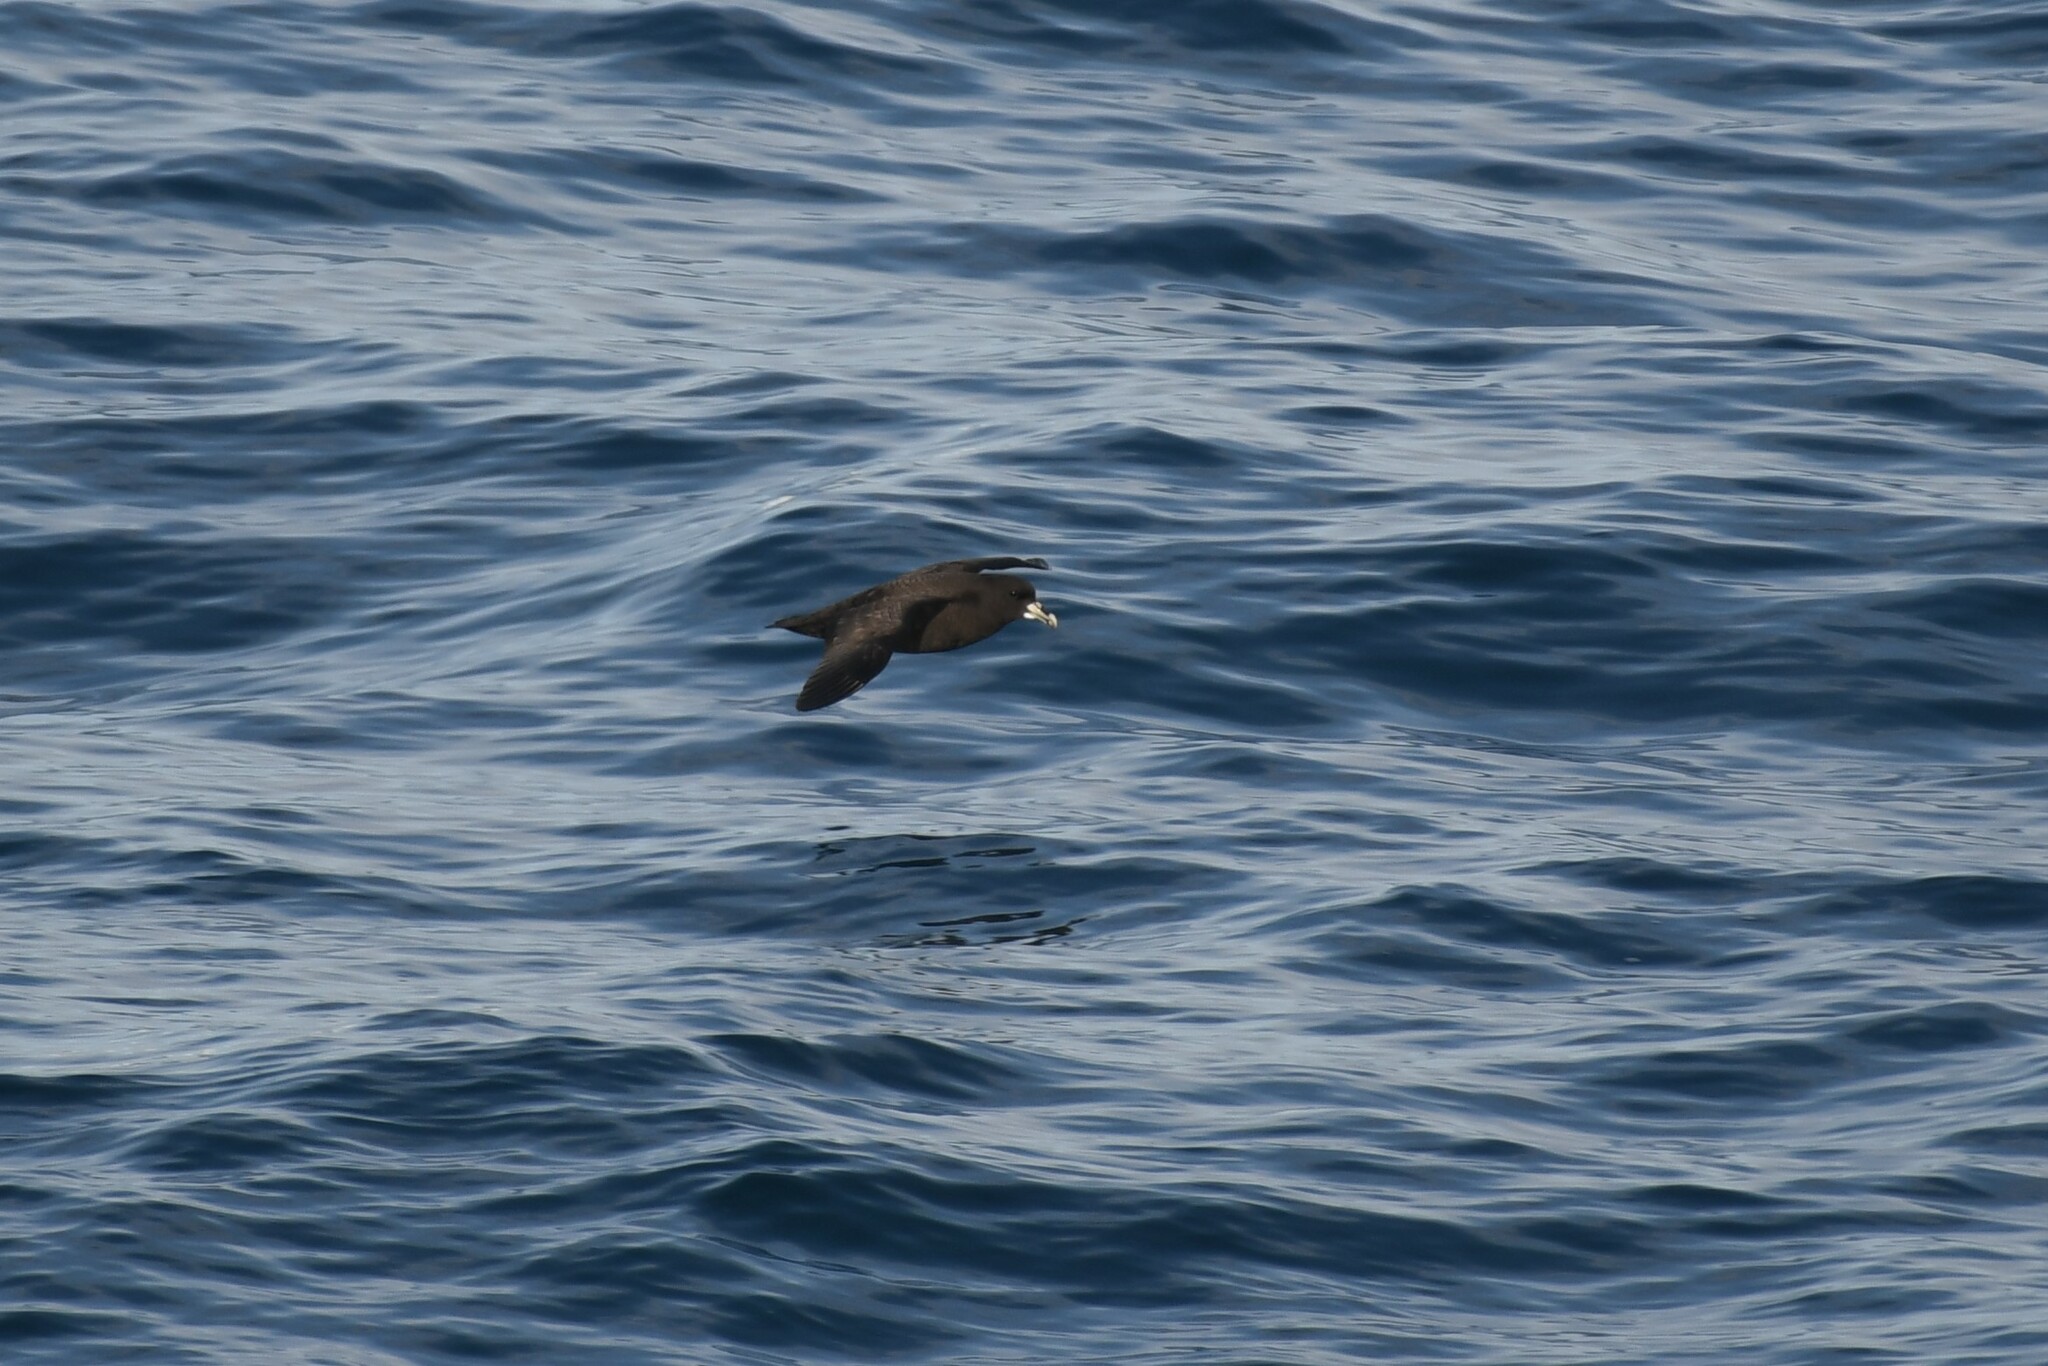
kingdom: Animalia
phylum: Chordata
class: Aves
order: Procellariiformes
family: Procellariidae
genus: Procellaria
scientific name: Procellaria aequinoctialis
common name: White-chinned petrel
